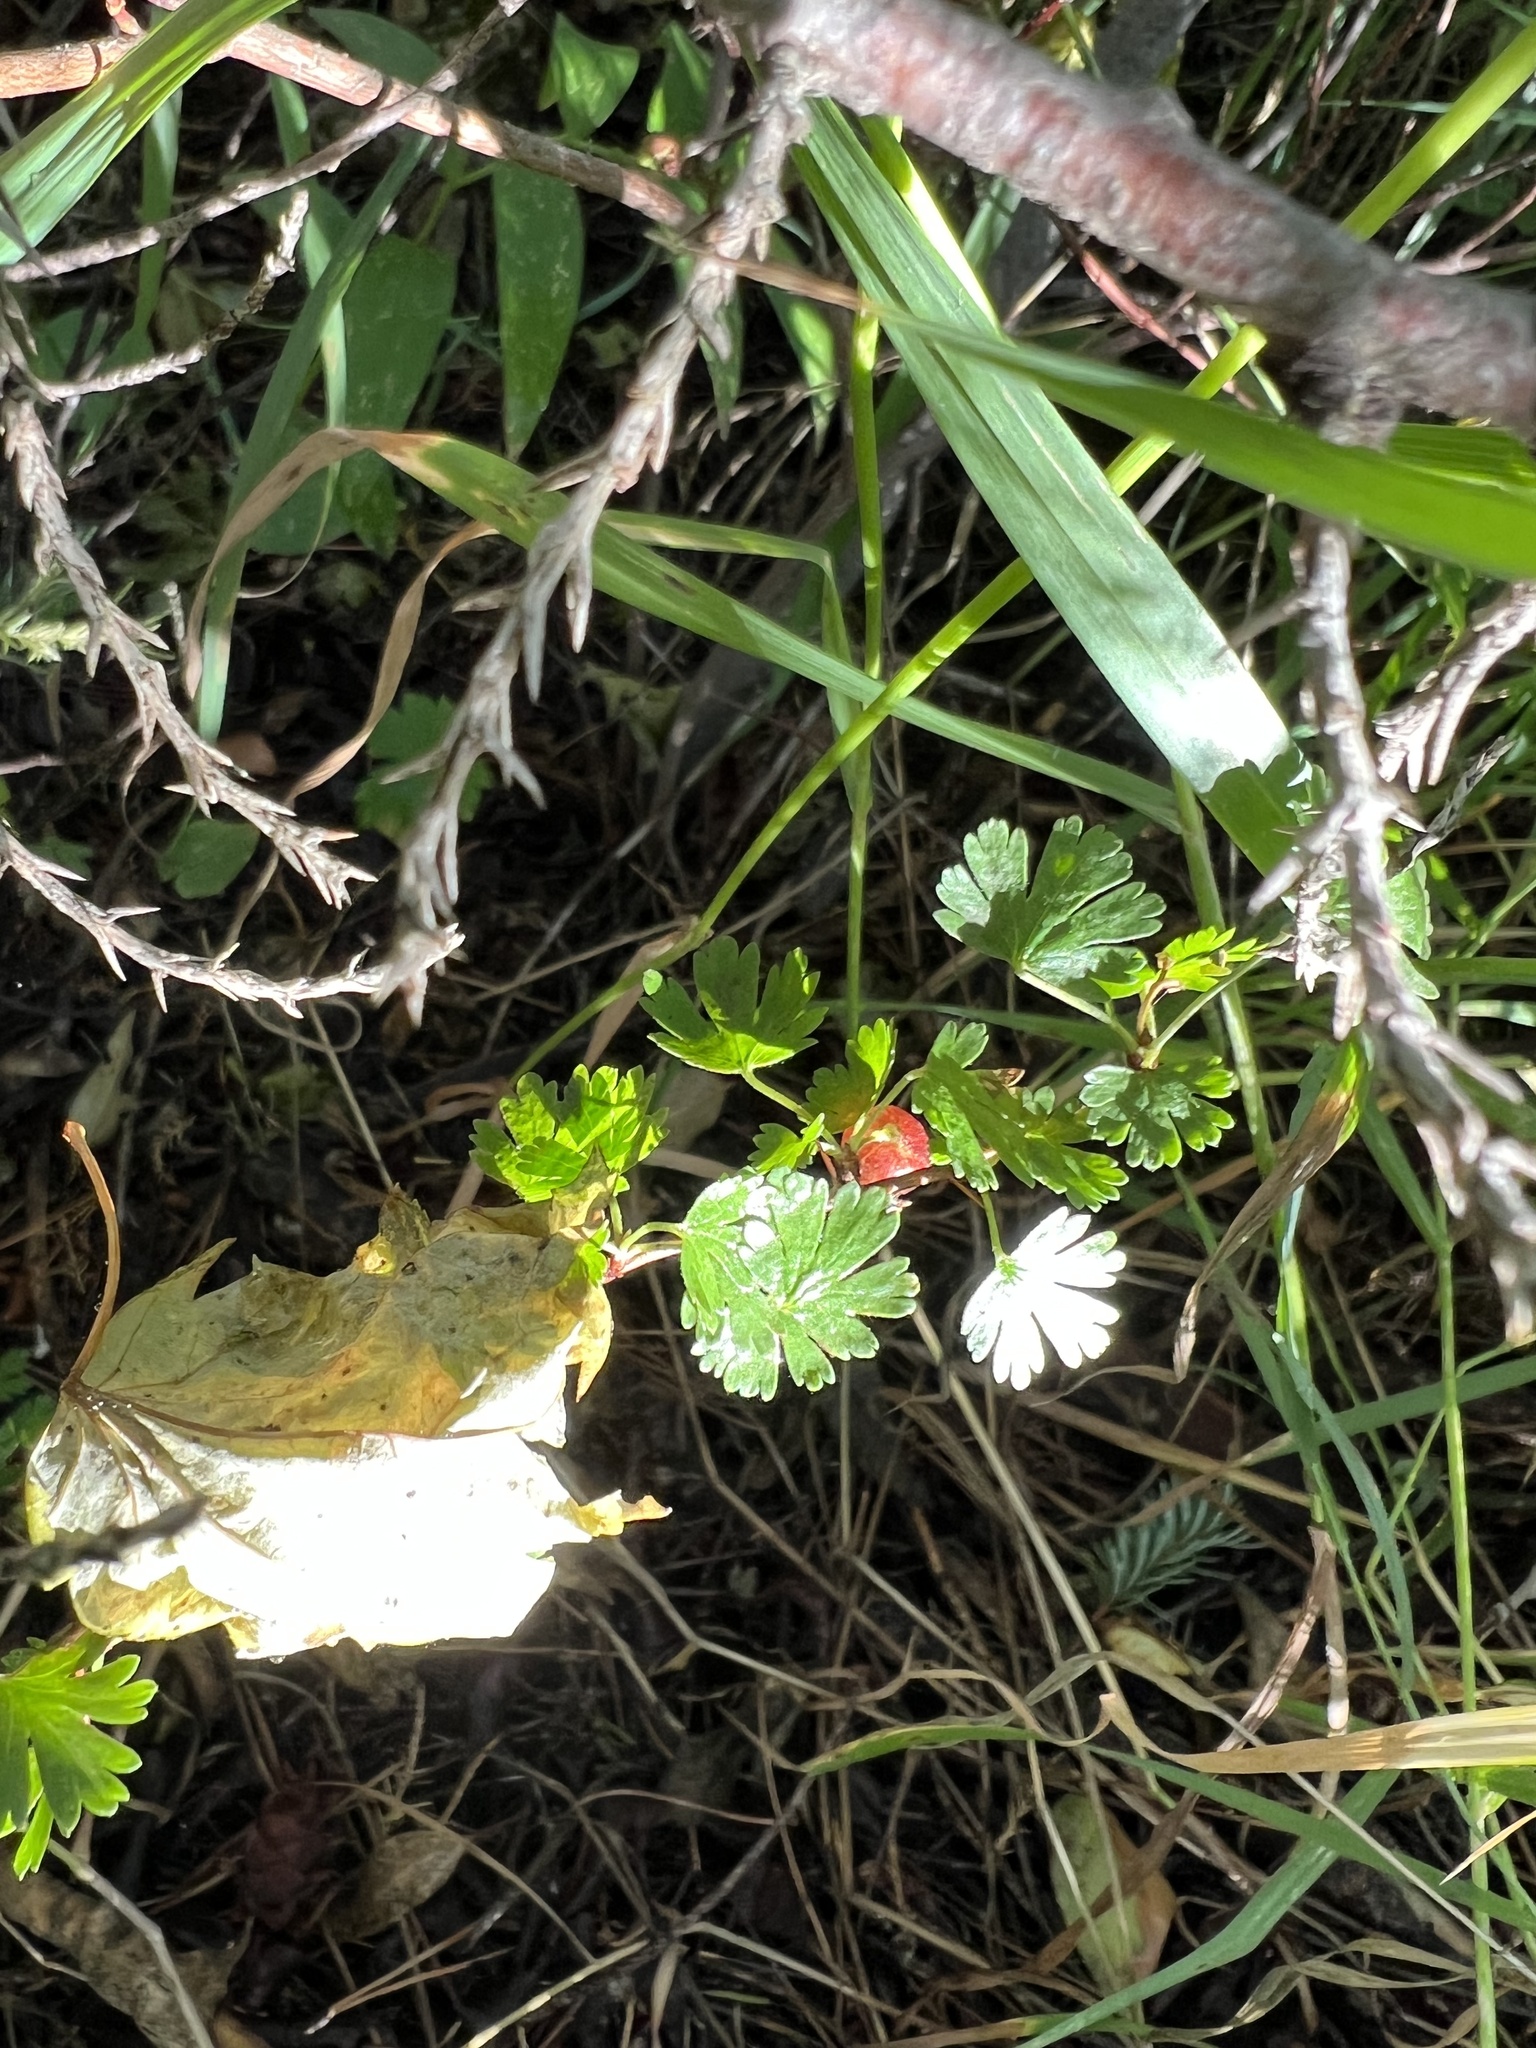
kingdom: Plantae
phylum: Tracheophyta
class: Magnoliopsida
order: Saxifragales
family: Grossulariaceae
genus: Ribes
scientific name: Ribes leptanthum
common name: Trumpet gooseberry
